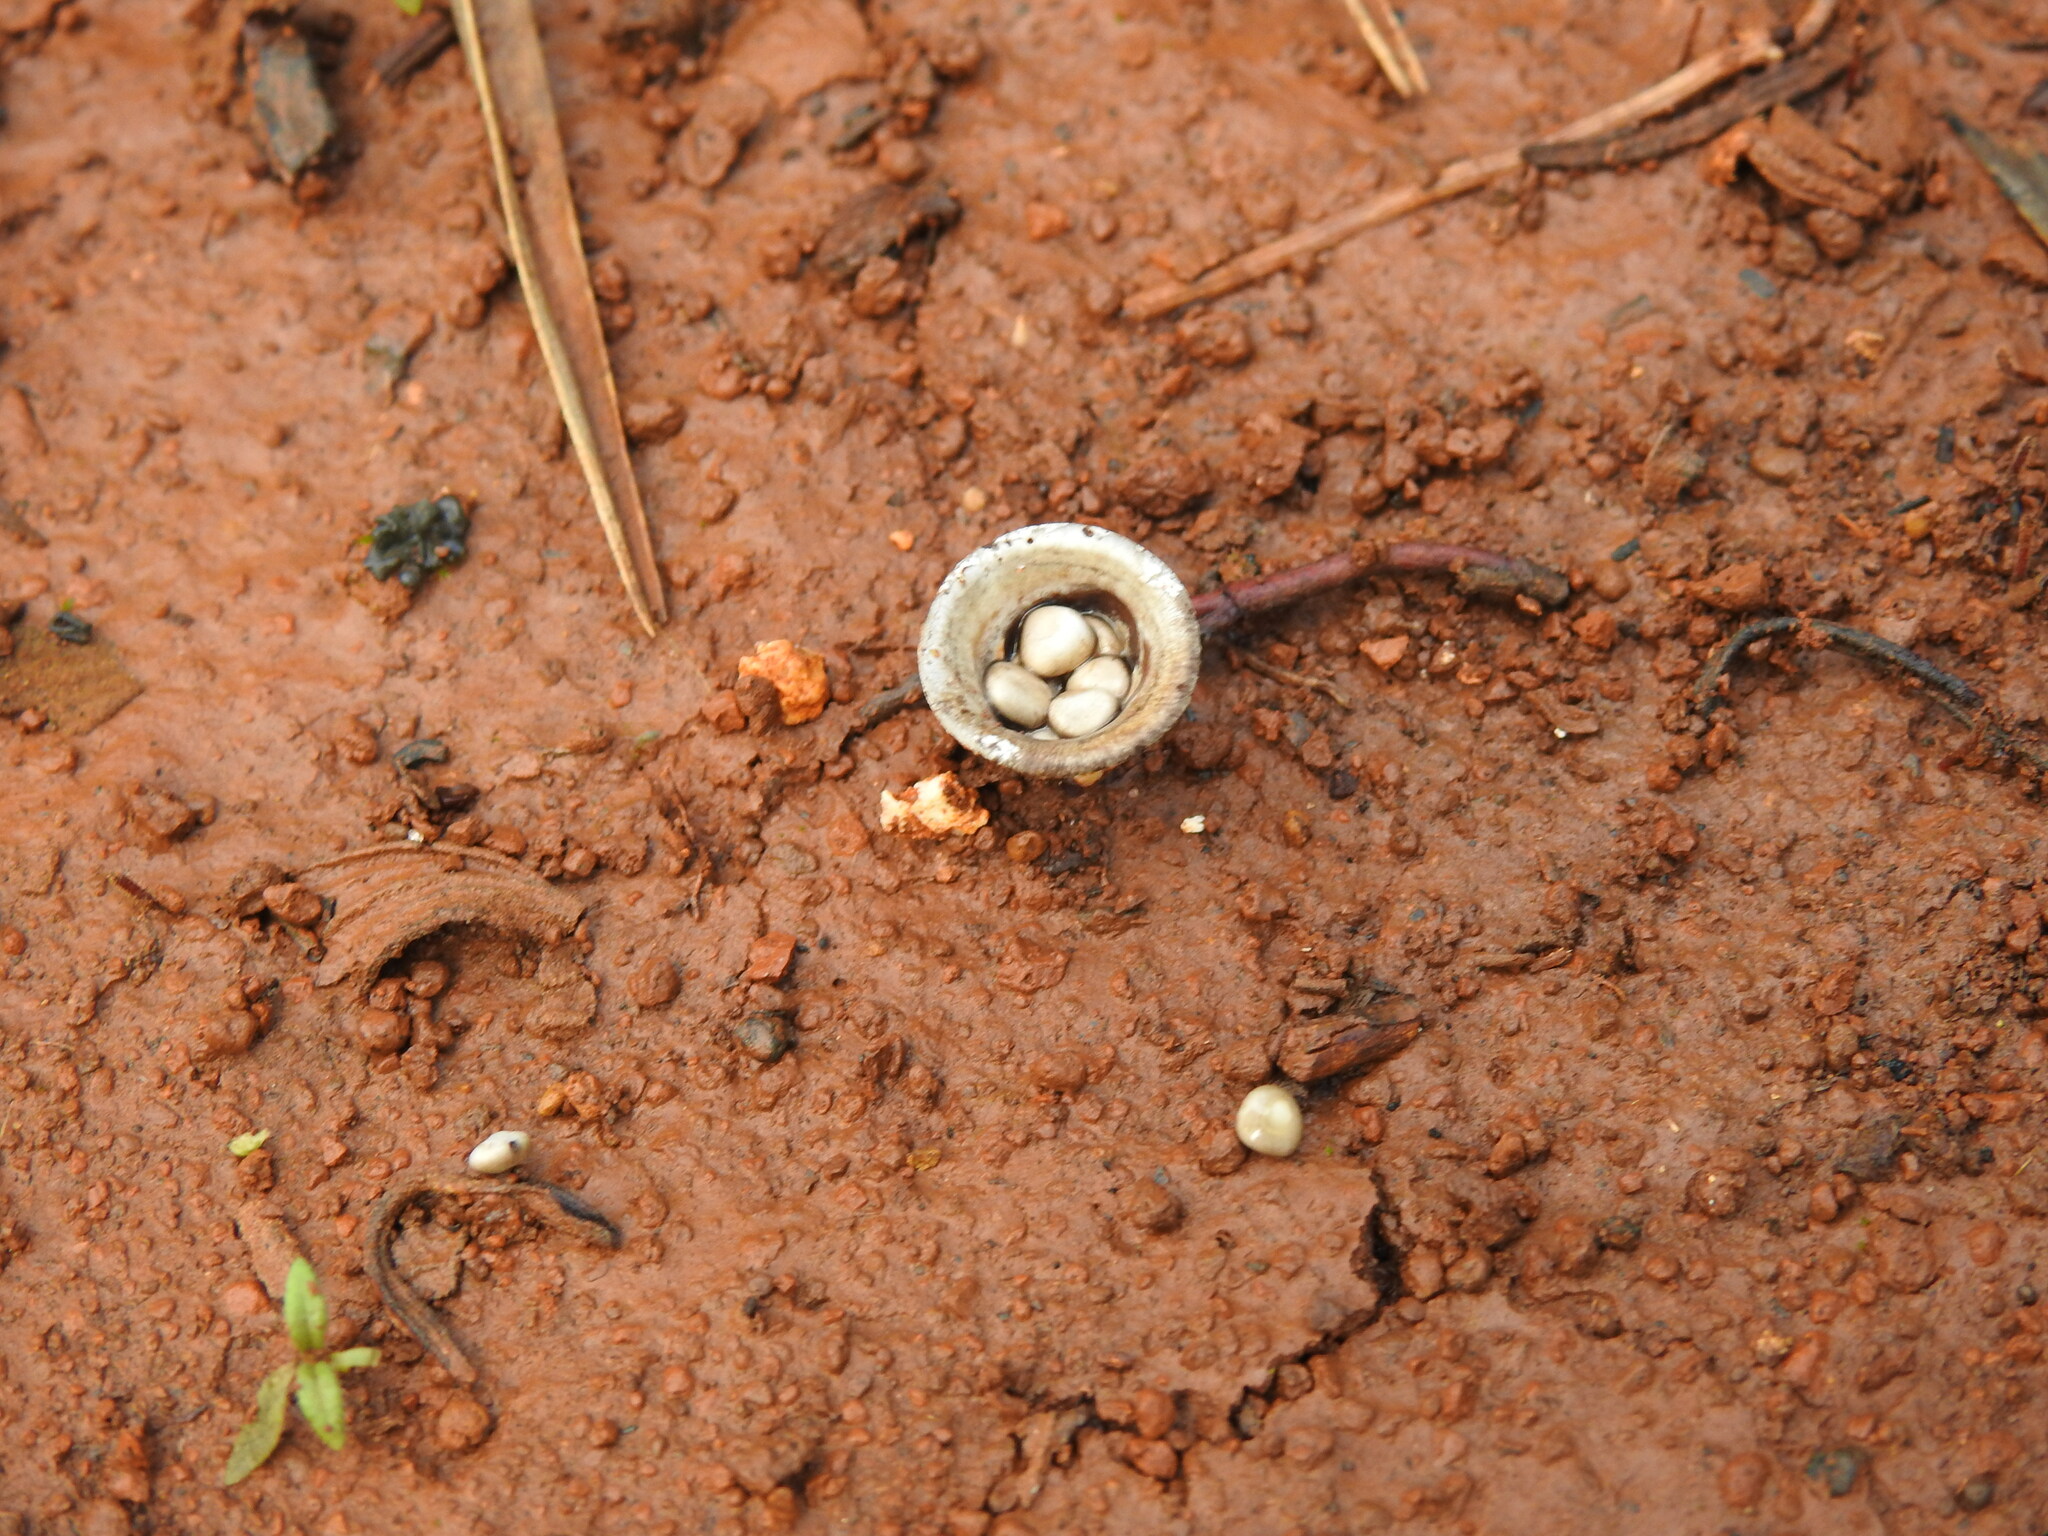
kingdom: Fungi
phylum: Basidiomycota
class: Agaricomycetes
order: Agaricales
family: Agaricaceae
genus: Cyathus
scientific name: Cyathus olla
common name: Field bird's nest
